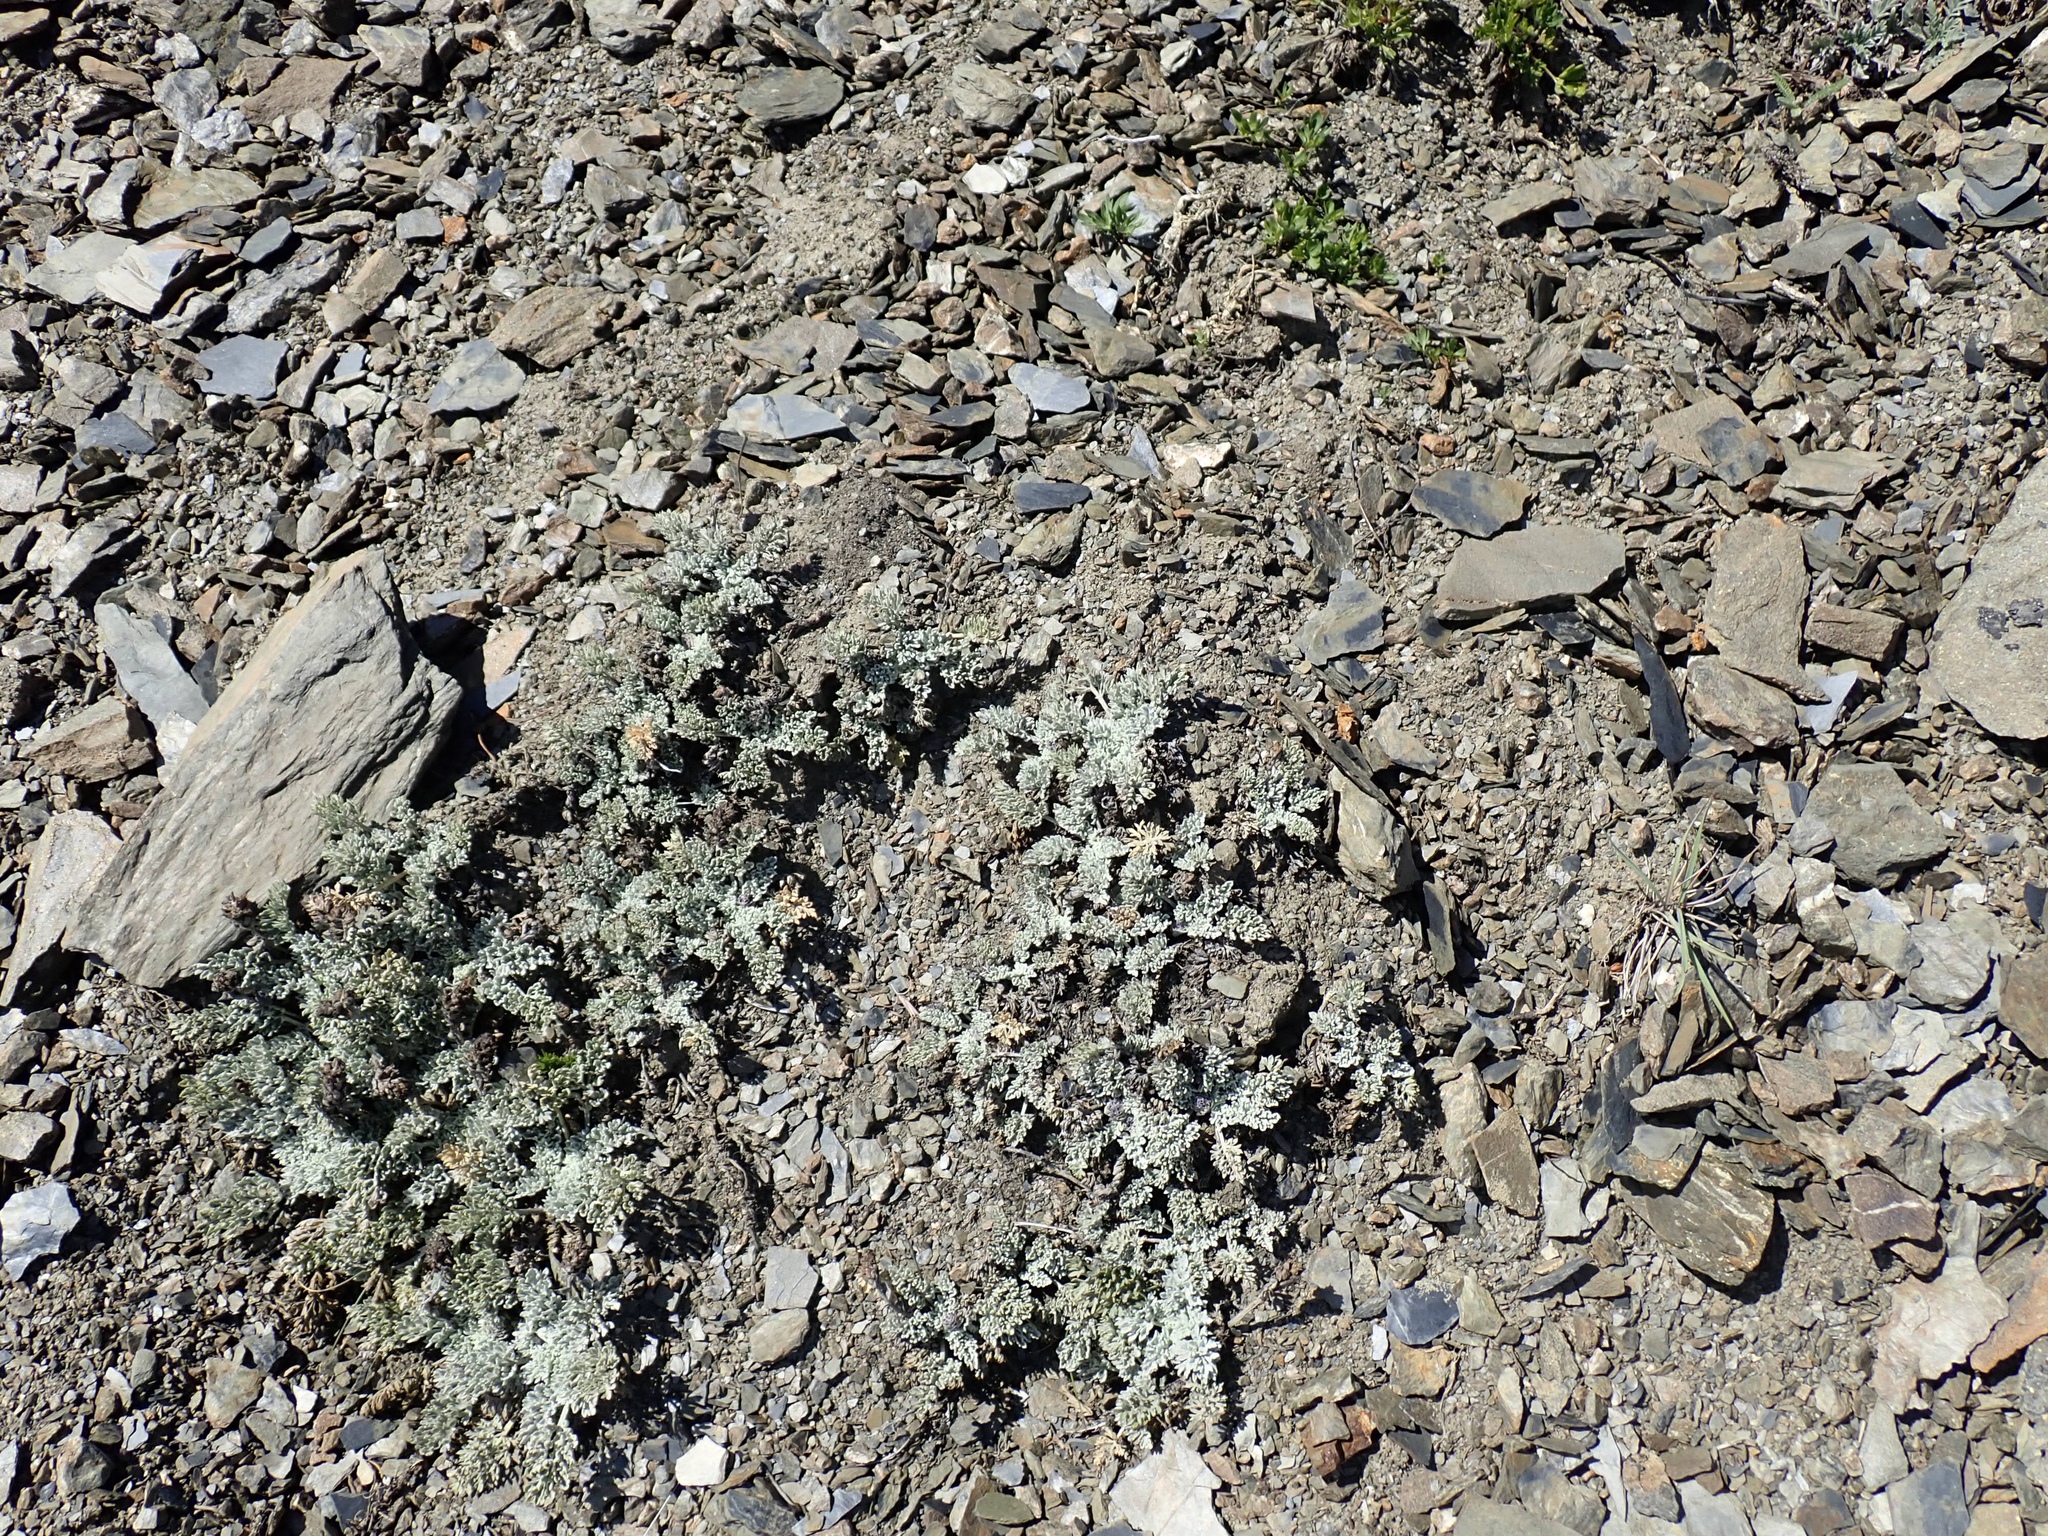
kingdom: Plantae
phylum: Tracheophyta
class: Magnoliopsida
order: Lamiales
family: Plantaginaceae
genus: Synthyris
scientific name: Synthyris lanuginosa
